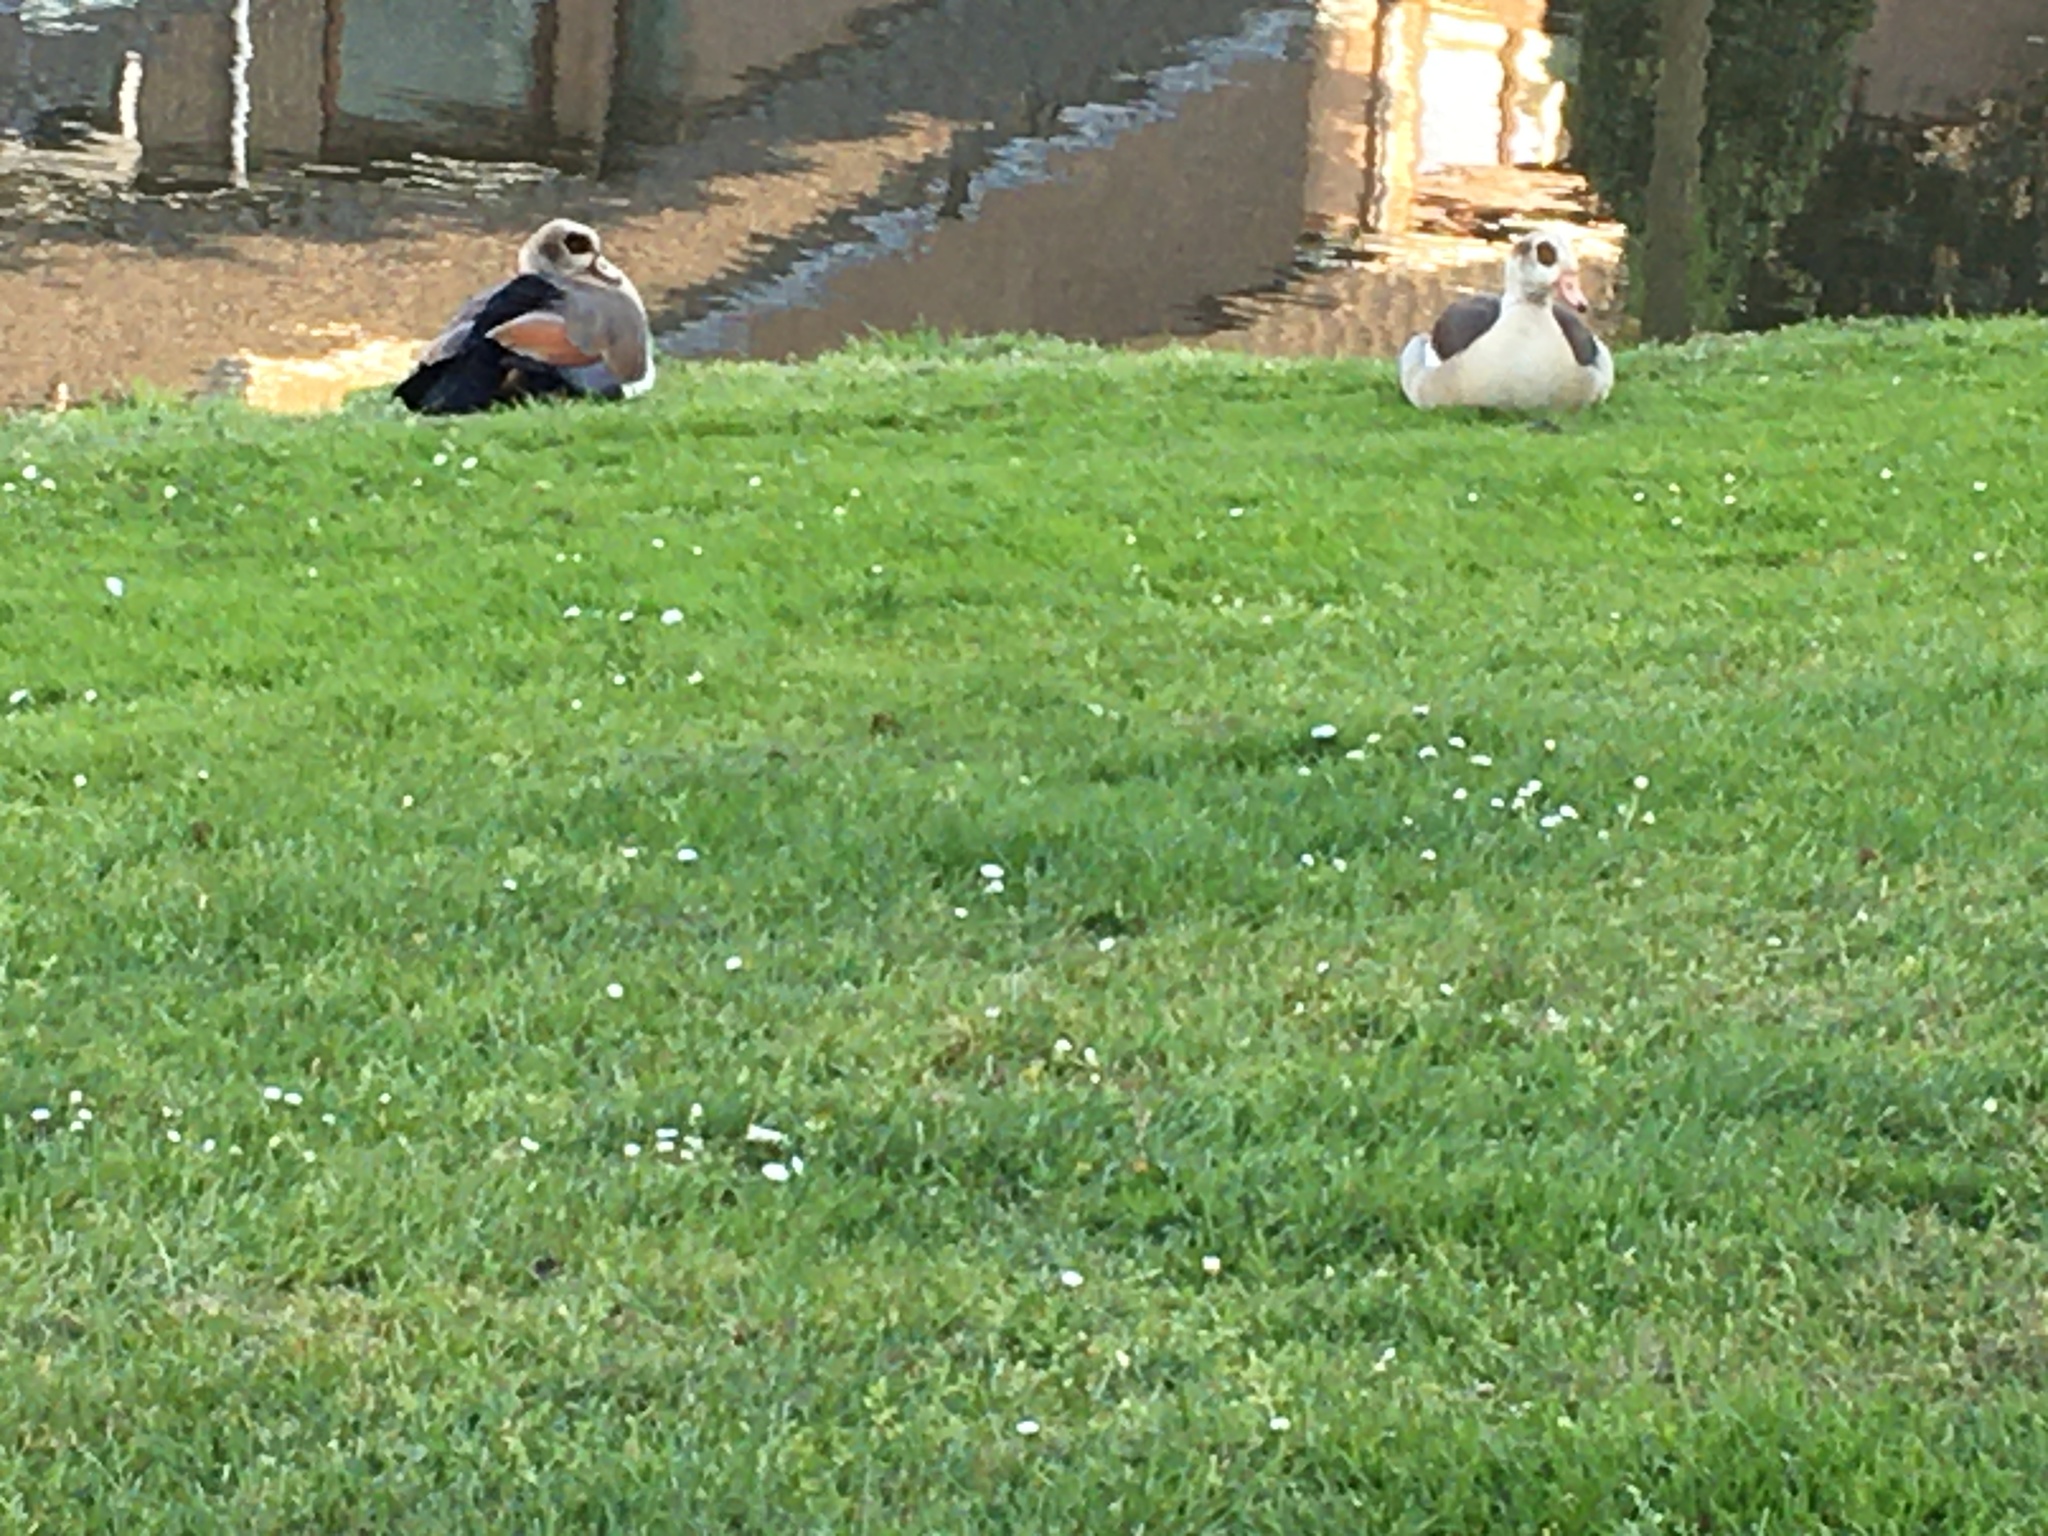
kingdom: Animalia
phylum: Chordata
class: Aves
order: Anseriformes
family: Anatidae
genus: Alopochen
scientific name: Alopochen aegyptiaca
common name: Egyptian goose
